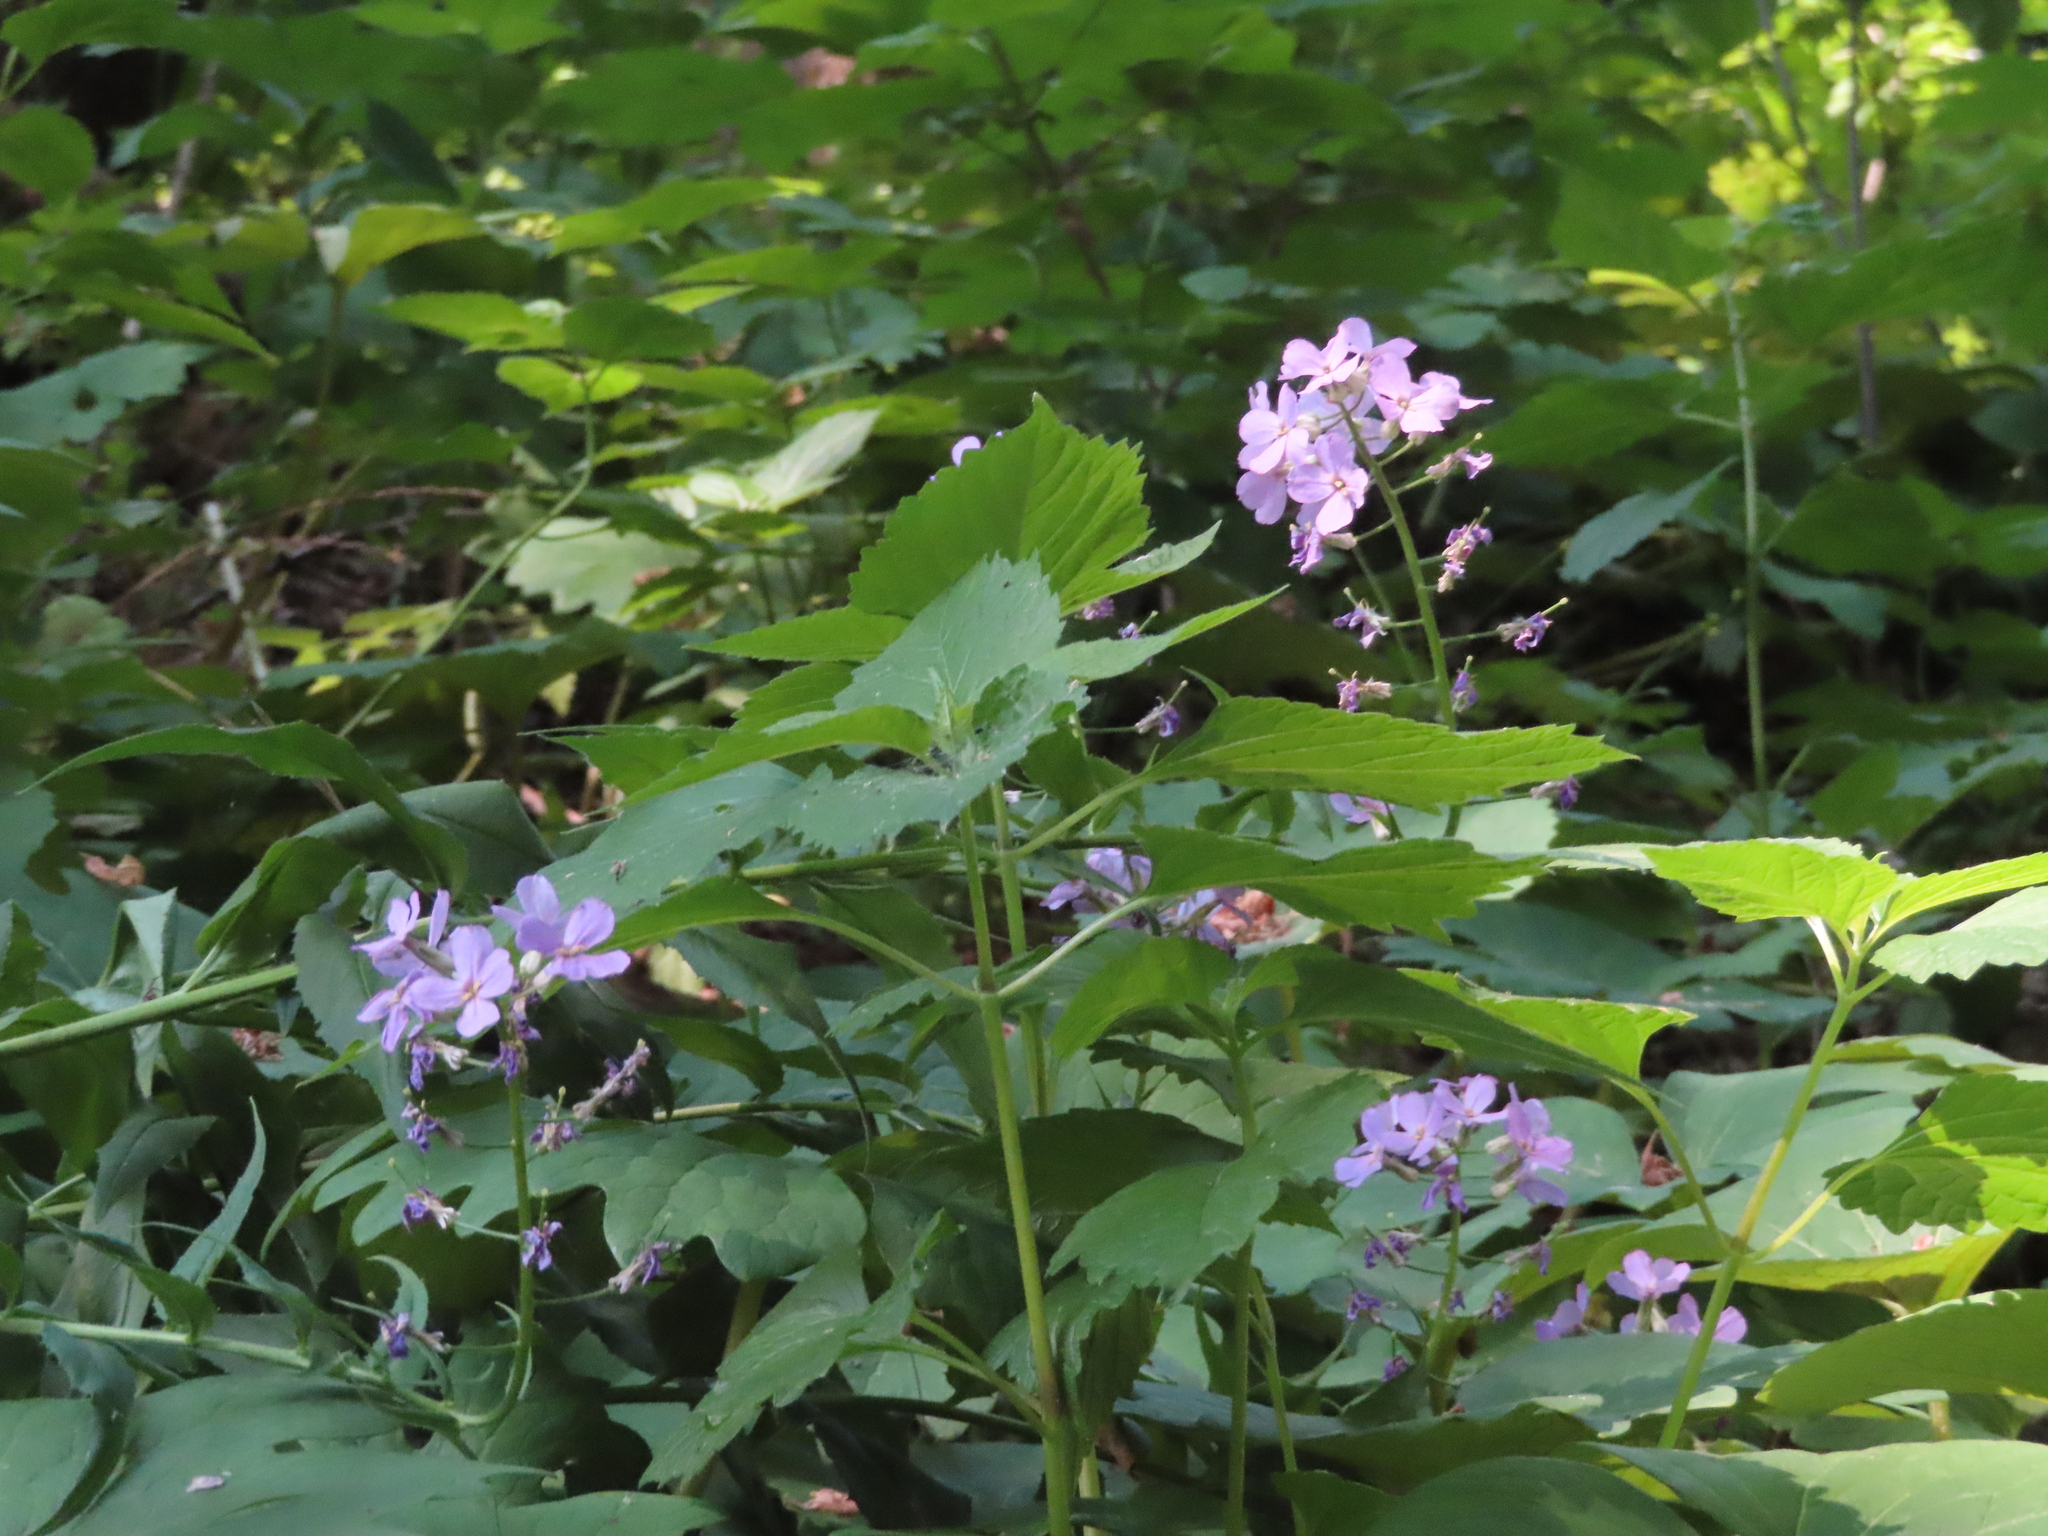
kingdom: Plantae
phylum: Tracheophyta
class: Magnoliopsida
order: Brassicales
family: Brassicaceae
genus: Hesperis
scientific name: Hesperis matronalis
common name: Dame's-violet
